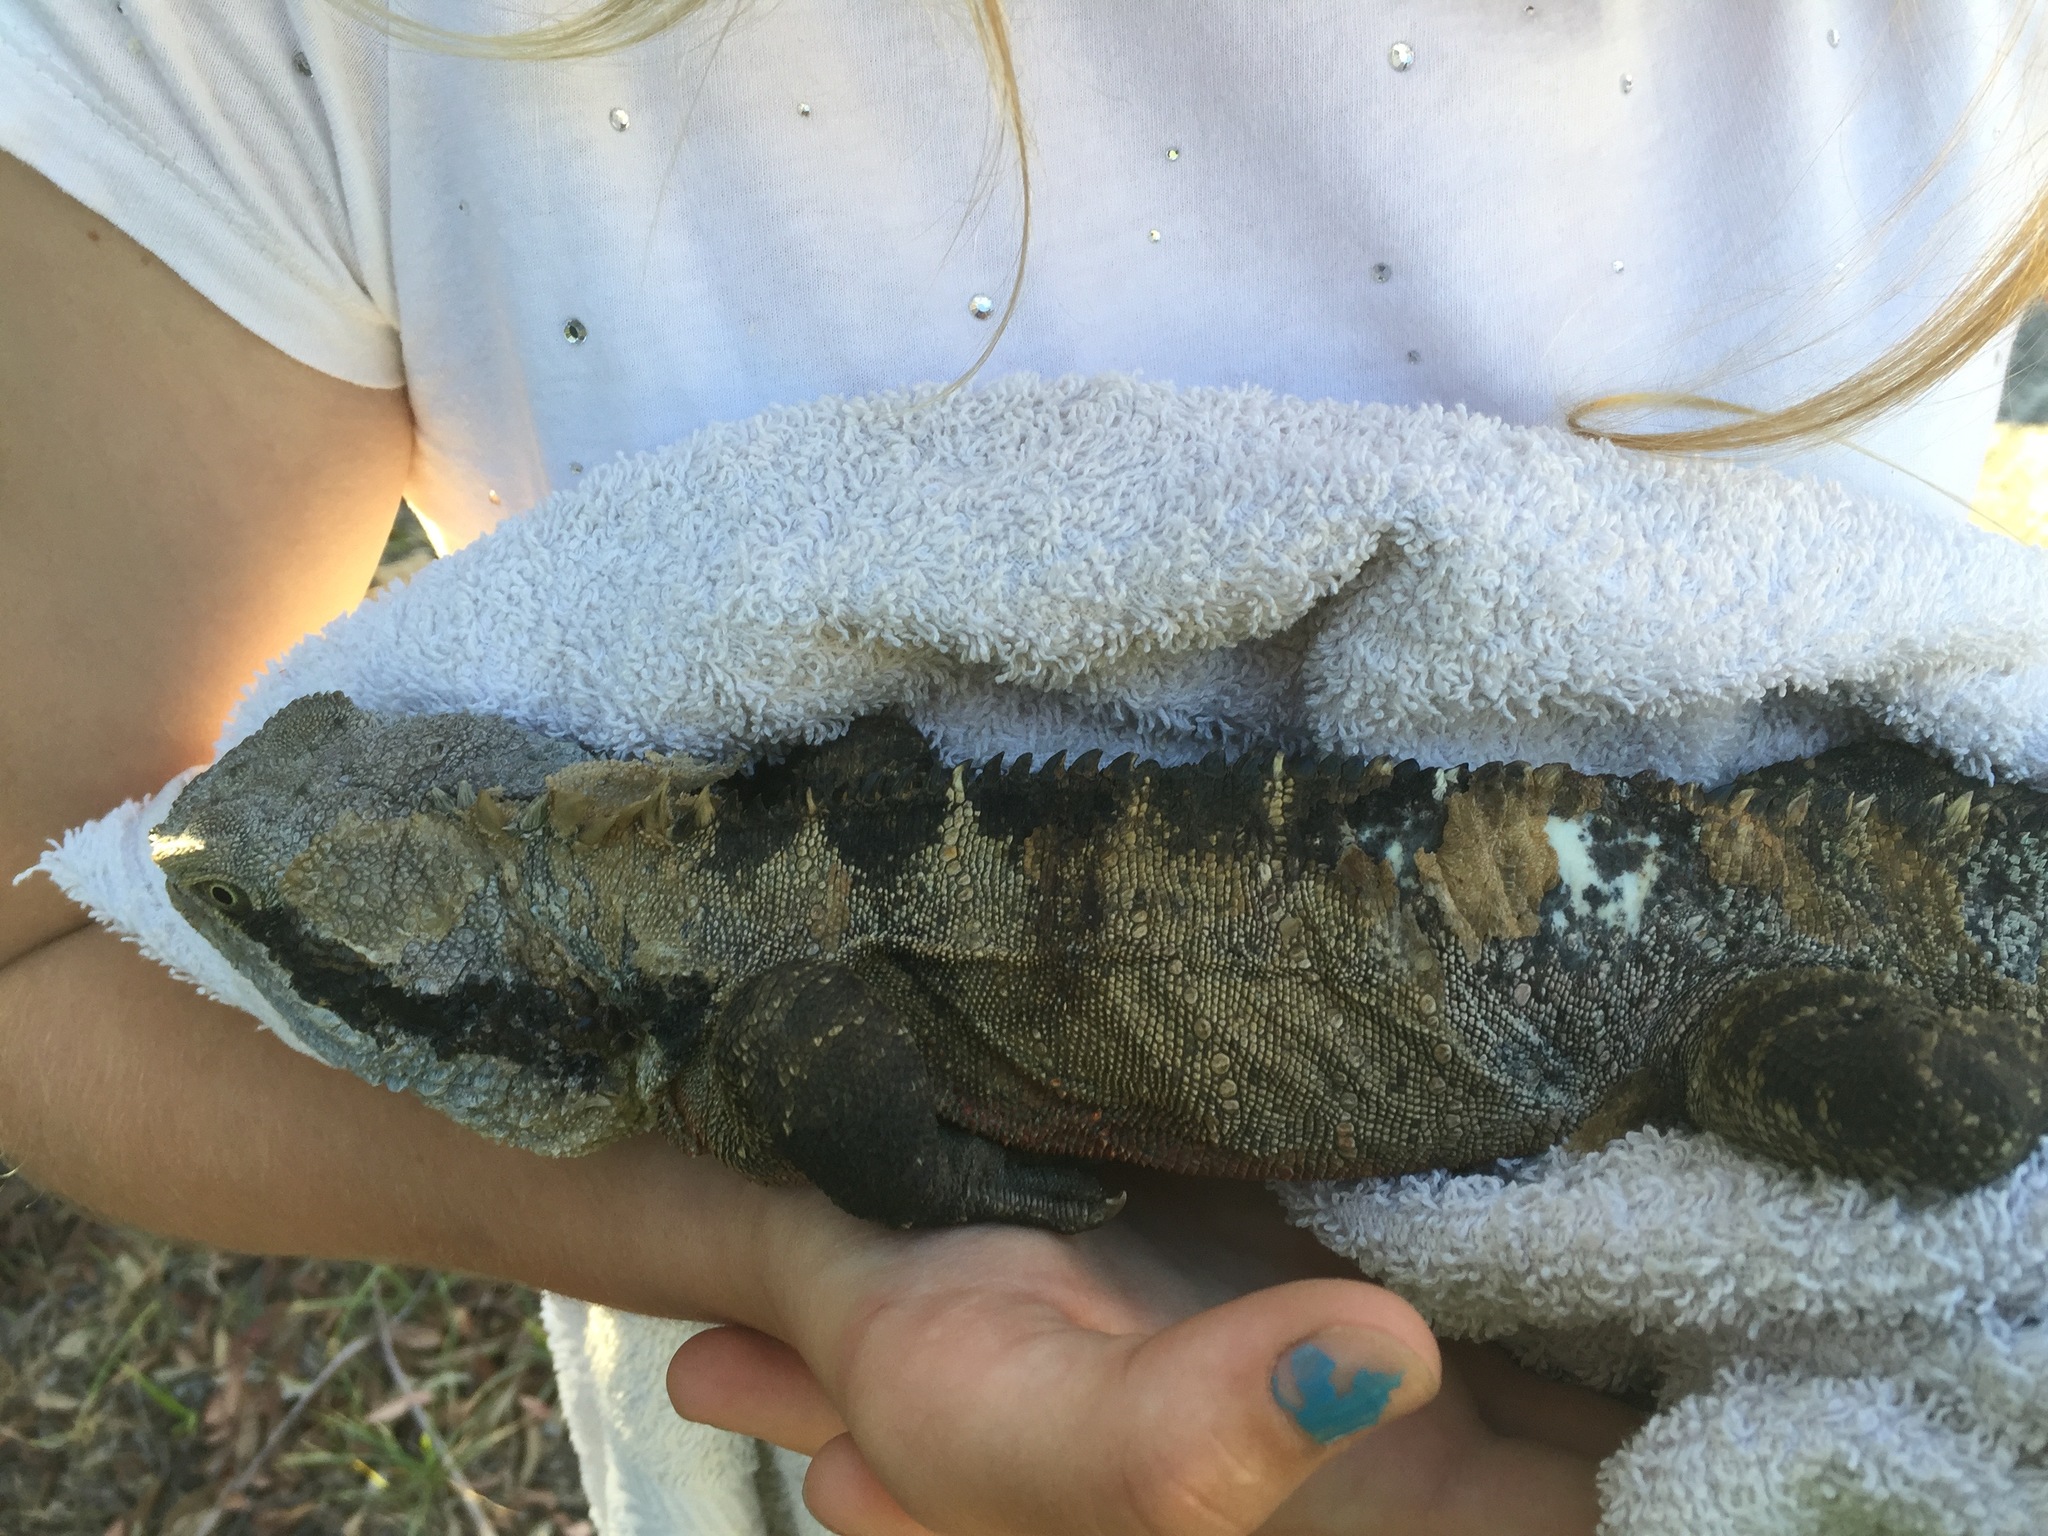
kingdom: Animalia
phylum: Chordata
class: Squamata
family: Agamidae
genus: Intellagama
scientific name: Intellagama lesueurii
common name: Eastern water dragon
